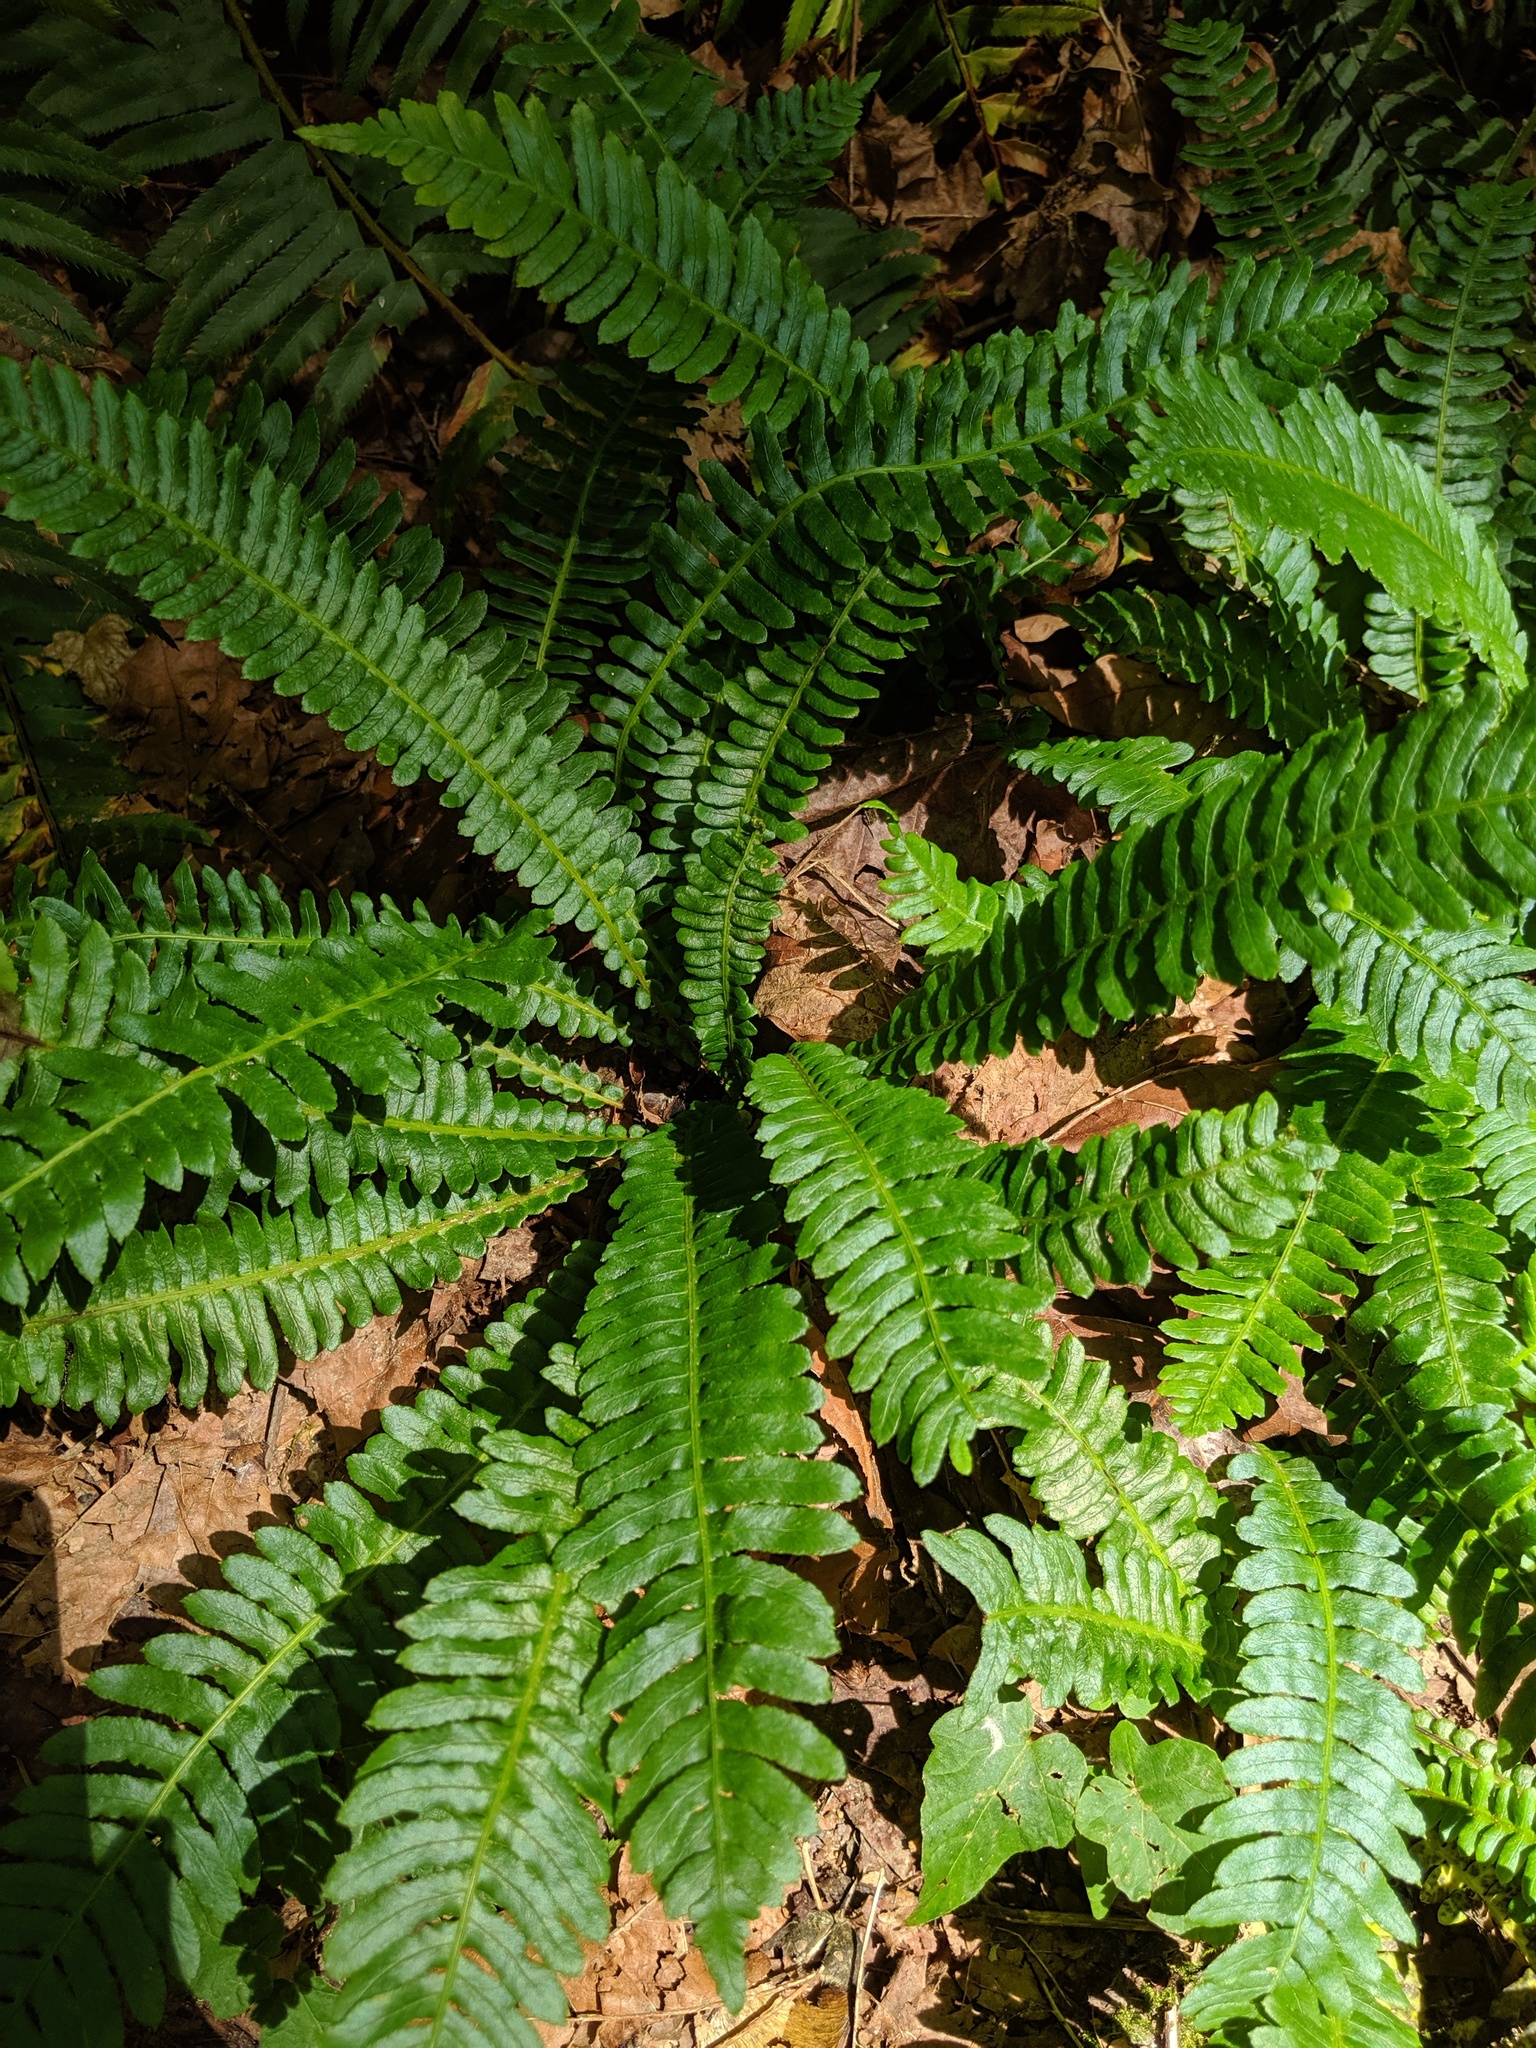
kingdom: Plantae
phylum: Tracheophyta
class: Polypodiopsida
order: Polypodiales
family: Blechnaceae
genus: Struthiopteris
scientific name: Struthiopteris spicant
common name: Deer fern
